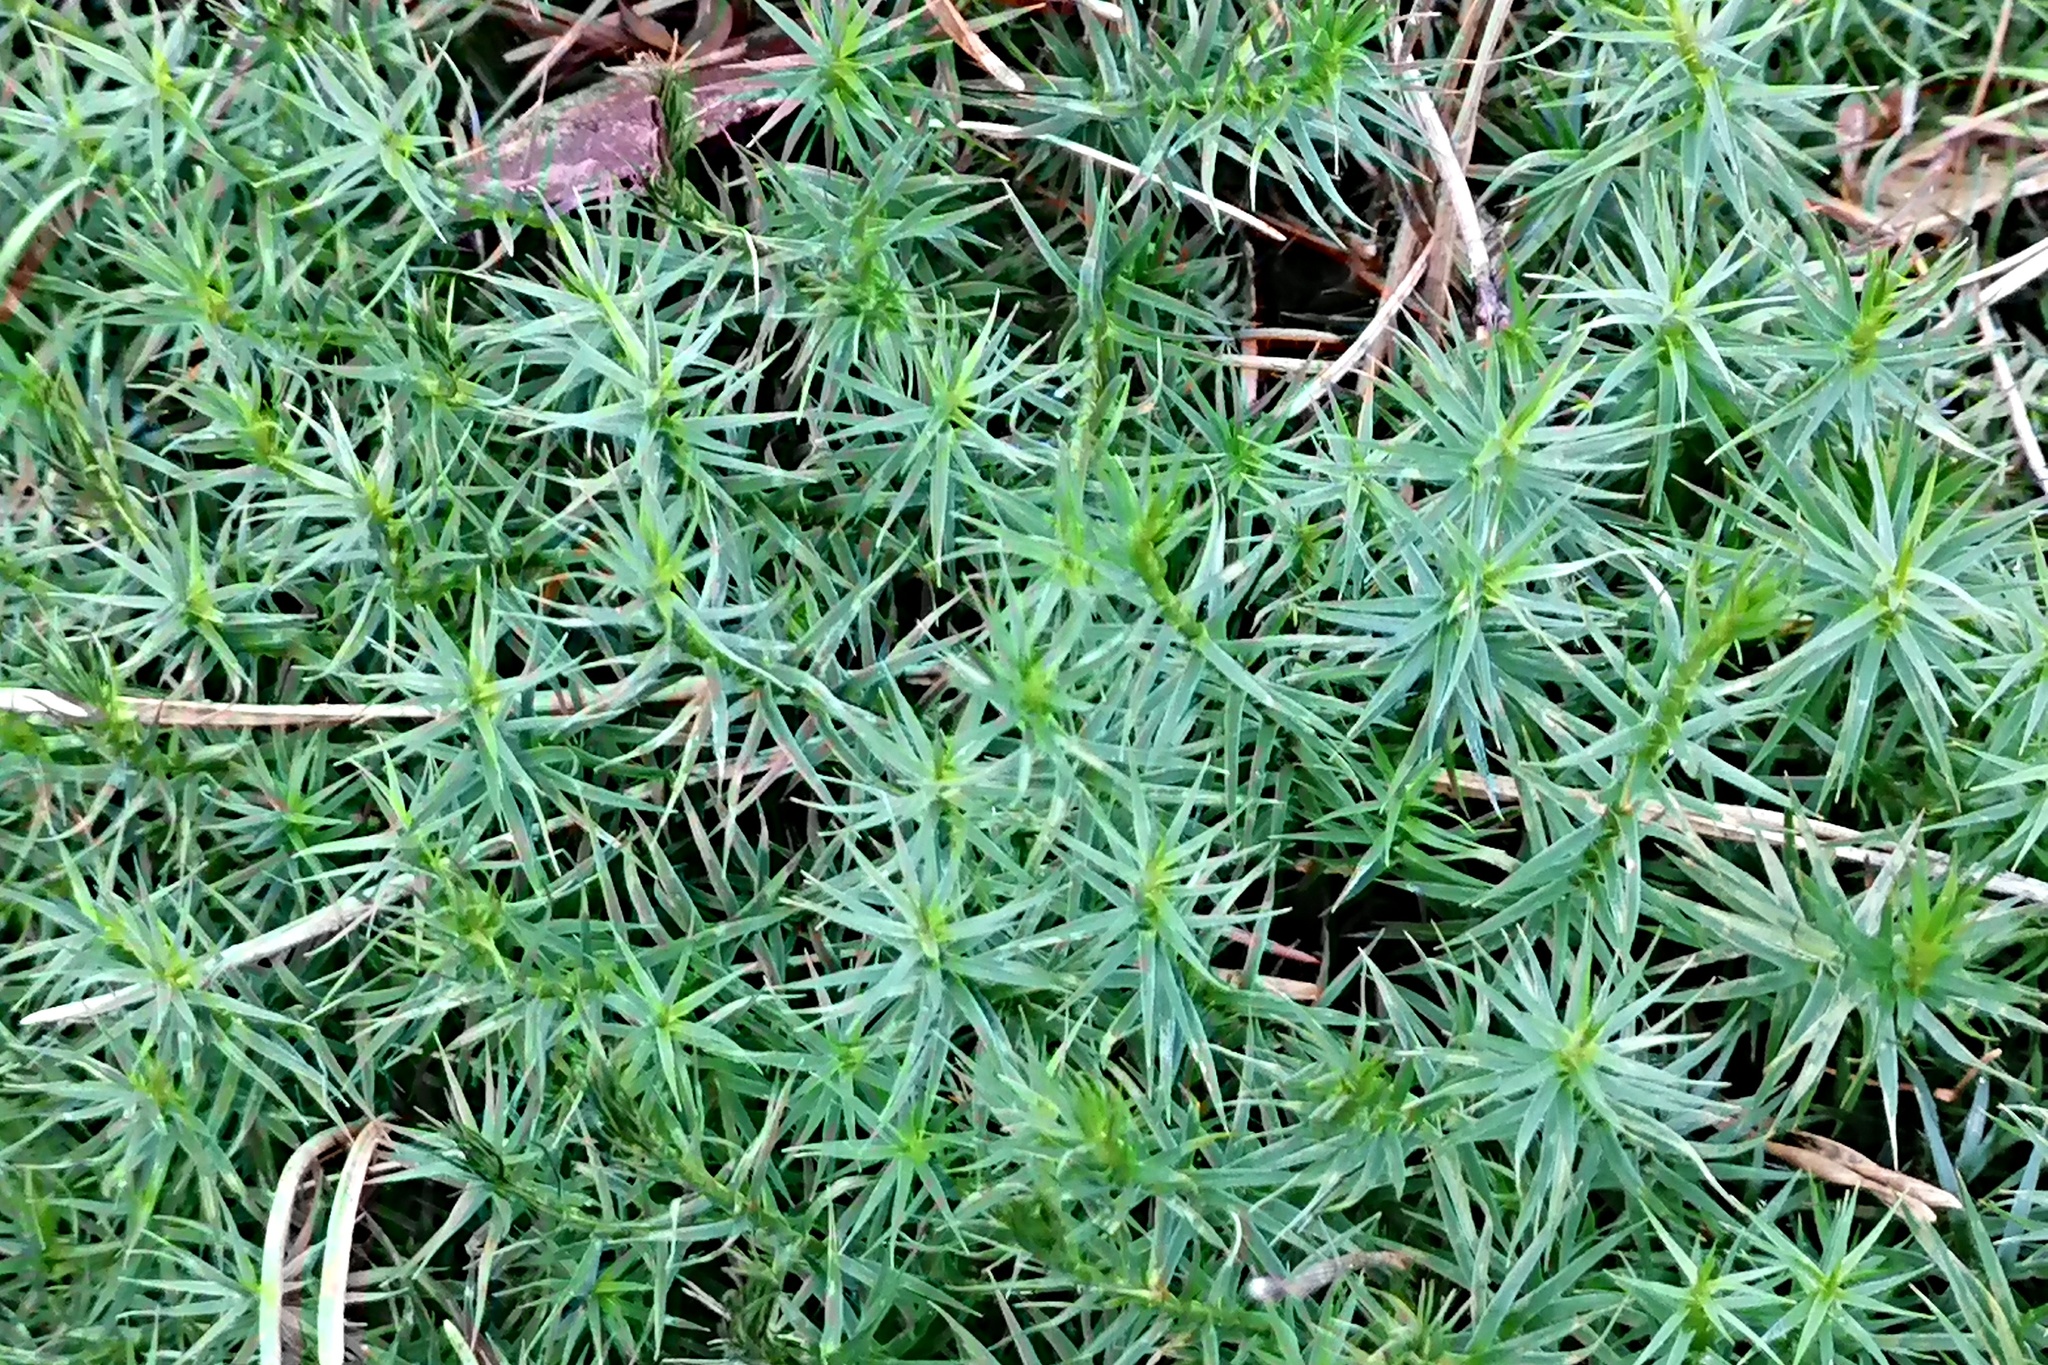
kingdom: Plantae
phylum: Bryophyta
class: Polytrichopsida
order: Polytrichales
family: Polytrichaceae
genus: Polytrichum
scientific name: Polytrichum formosum
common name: Bank haircap moss
